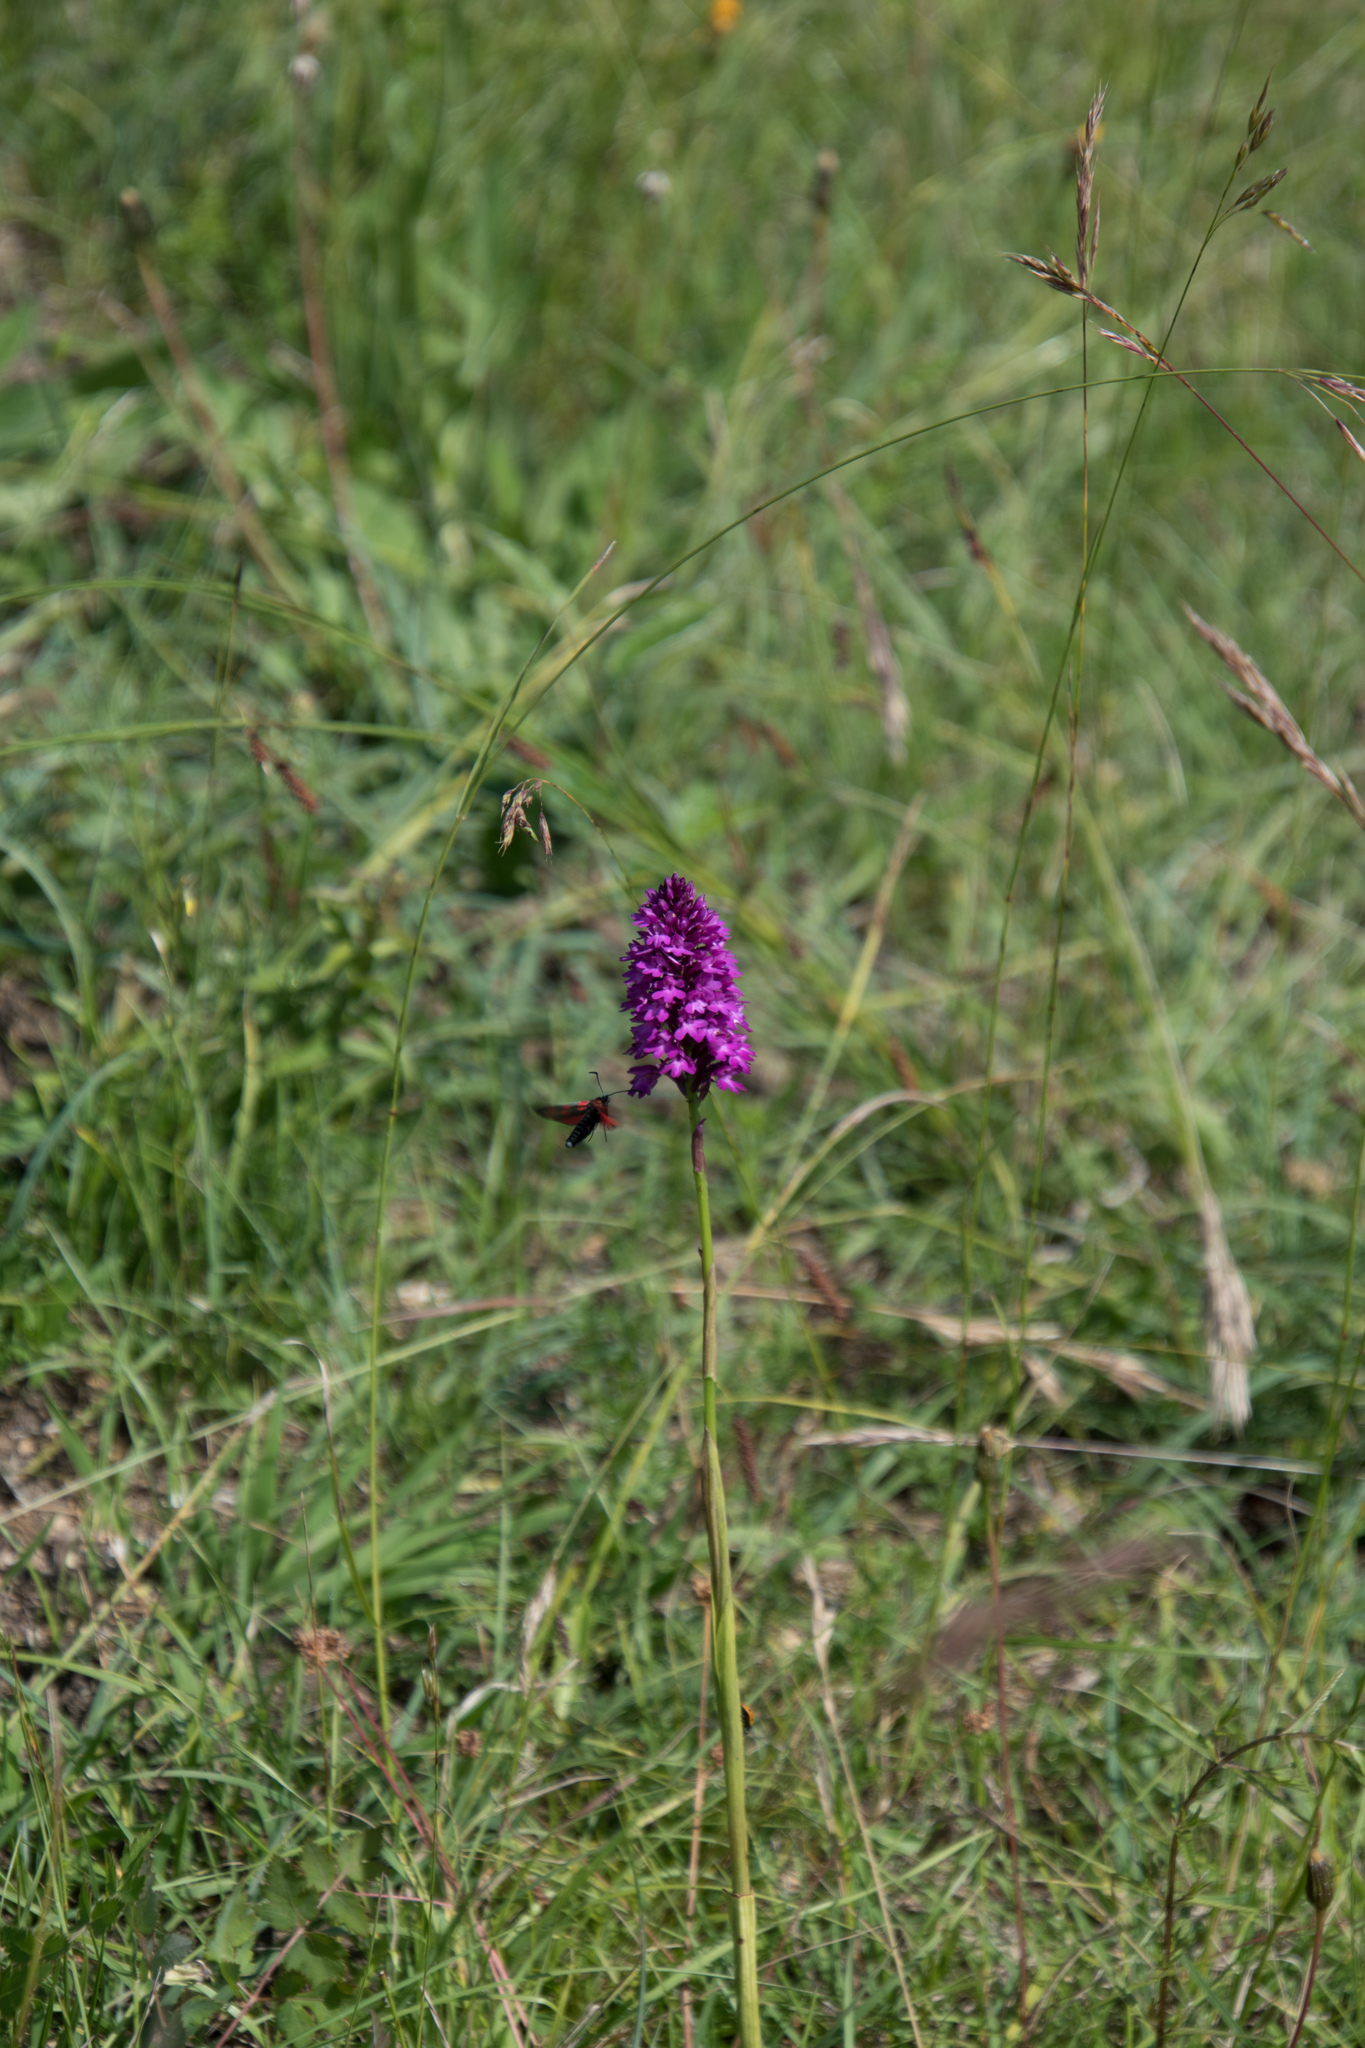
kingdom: Plantae
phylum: Tracheophyta
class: Liliopsida
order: Asparagales
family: Orchidaceae
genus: Anacamptis
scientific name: Anacamptis pyramidalis
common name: Pyramidal orchid
